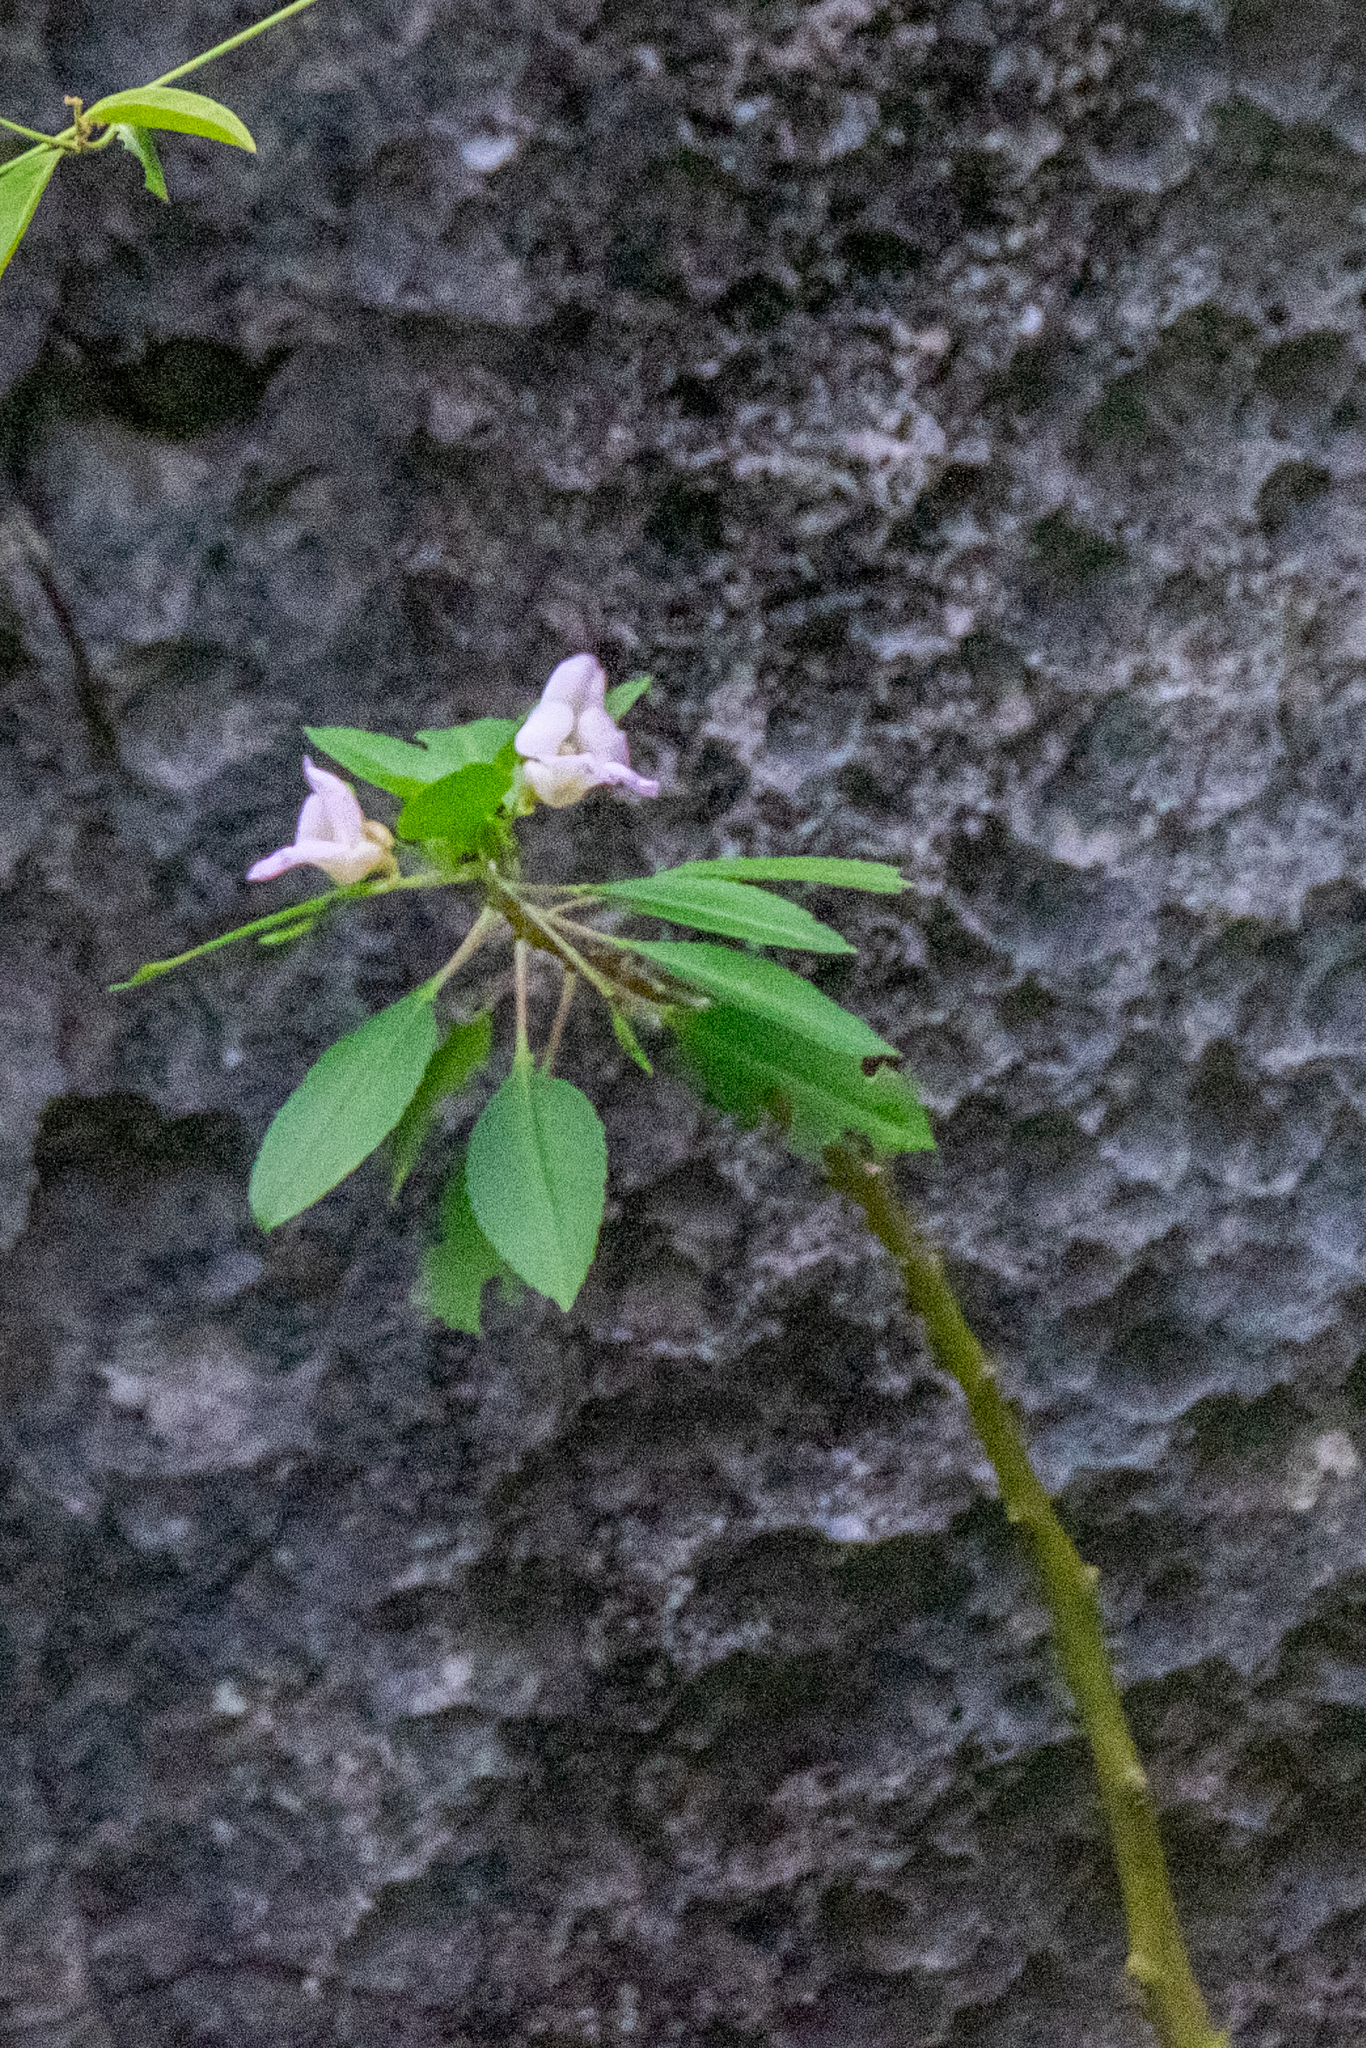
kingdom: Plantae
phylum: Tracheophyta
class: Magnoliopsida
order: Ericales
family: Balsaminaceae
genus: Impatiens
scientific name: Impatiens verrucifer
